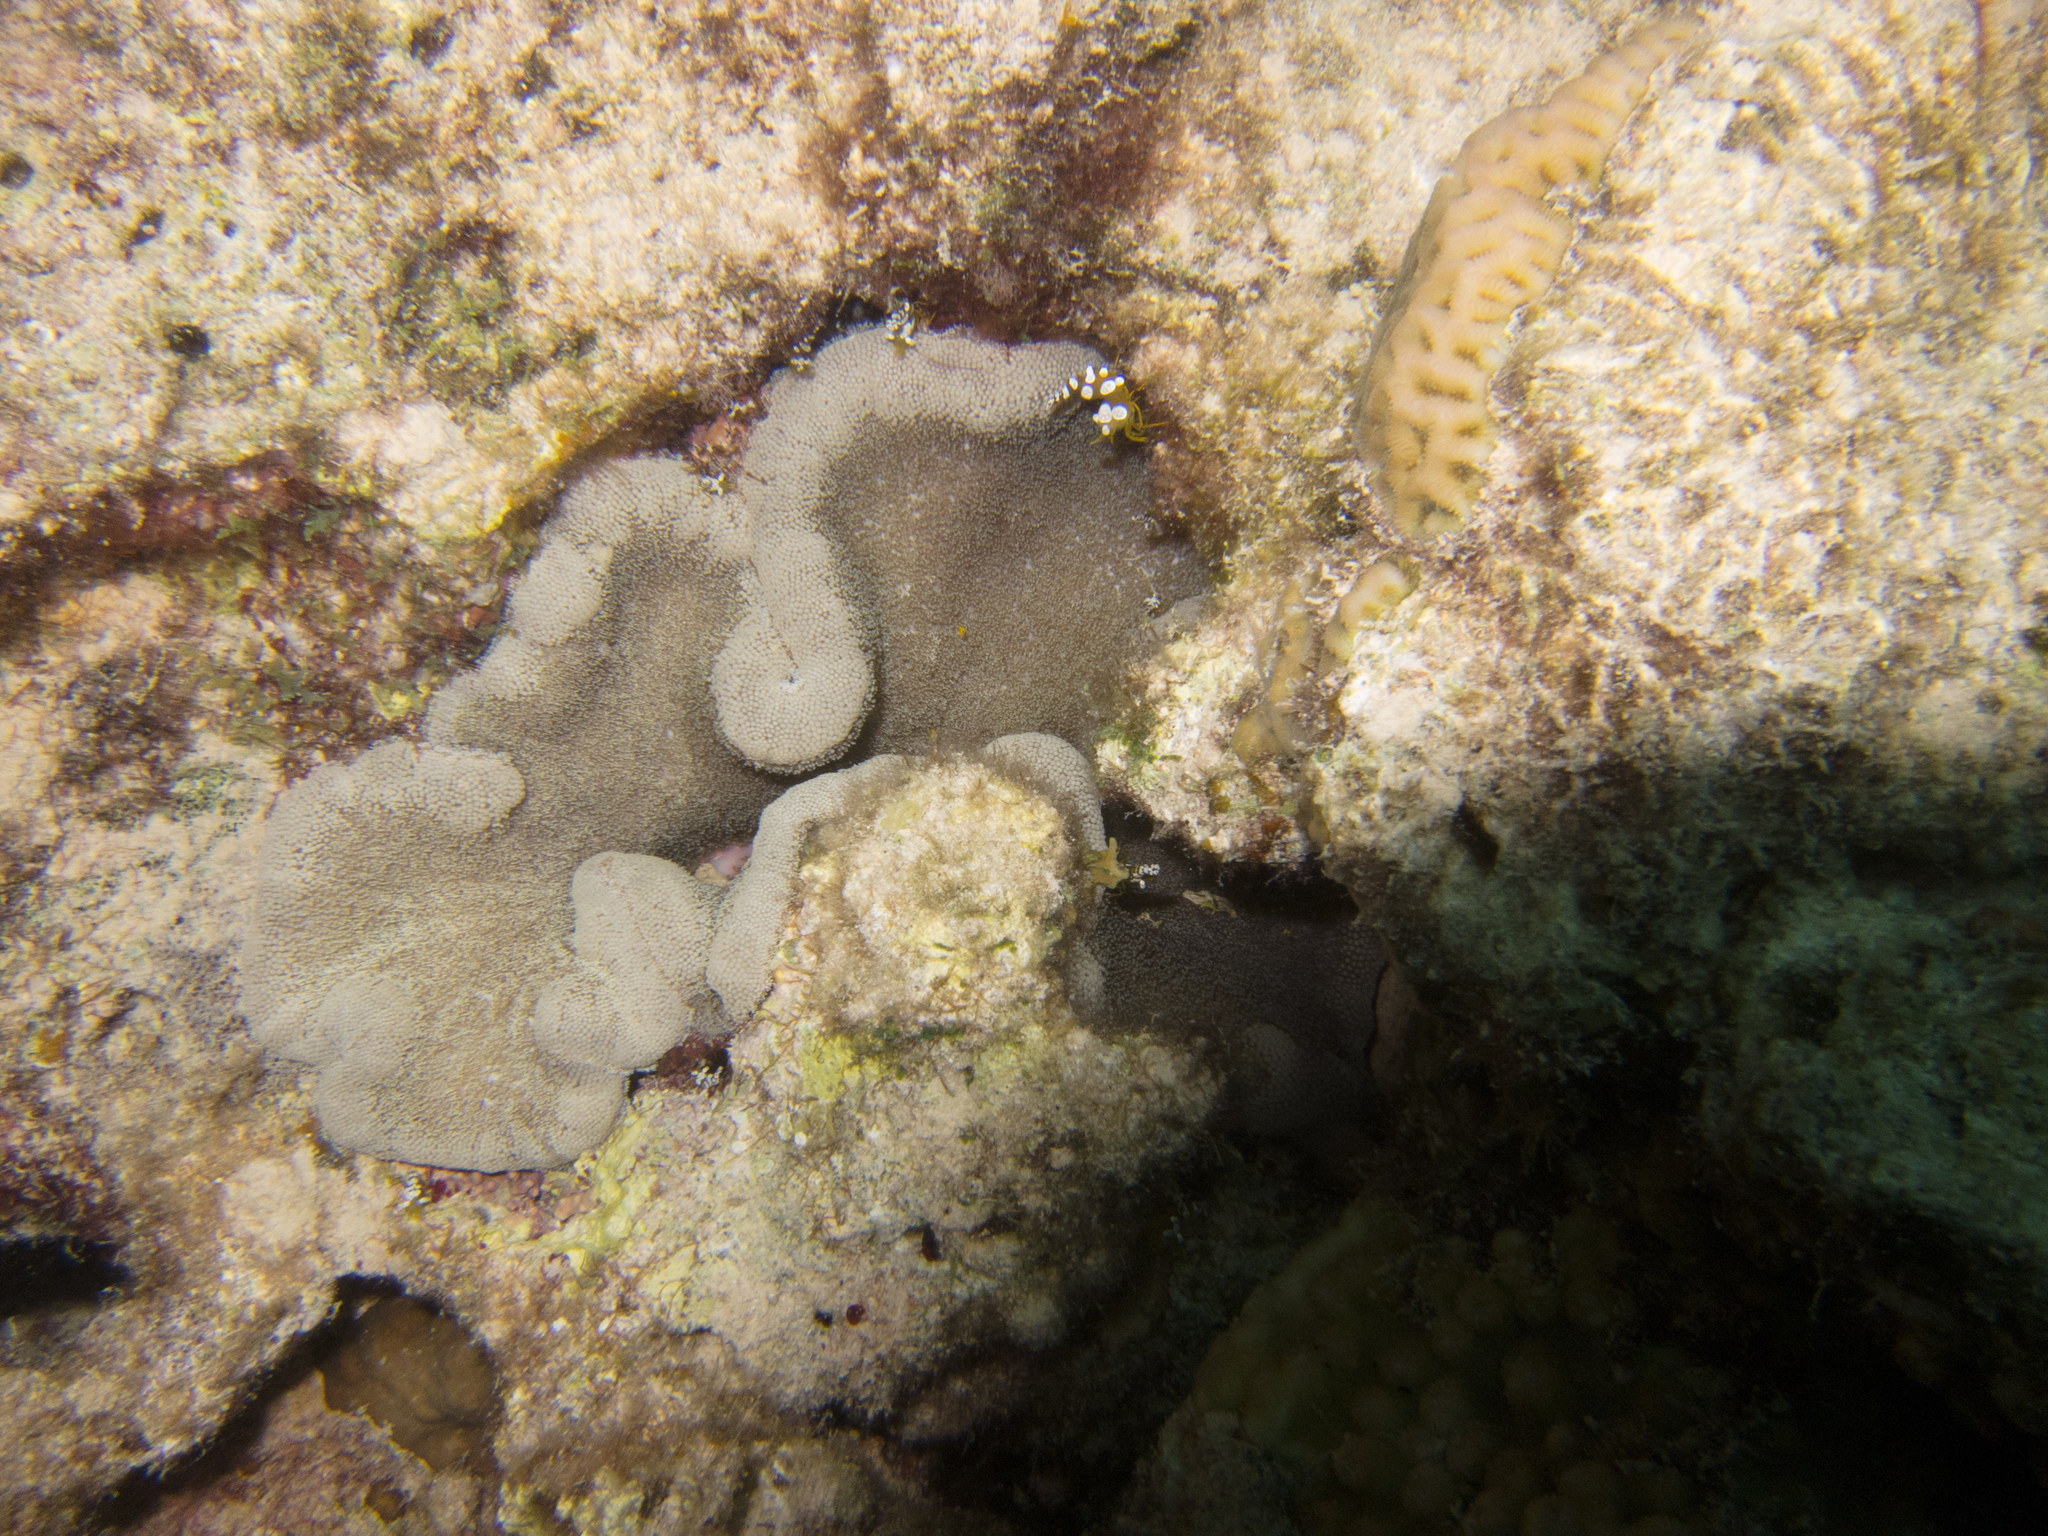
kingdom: Animalia
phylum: Arthropoda
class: Malacostraca
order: Decapoda
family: Thoridae
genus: Thor
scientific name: Thor amboinensis
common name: Squat anemone shrimp
